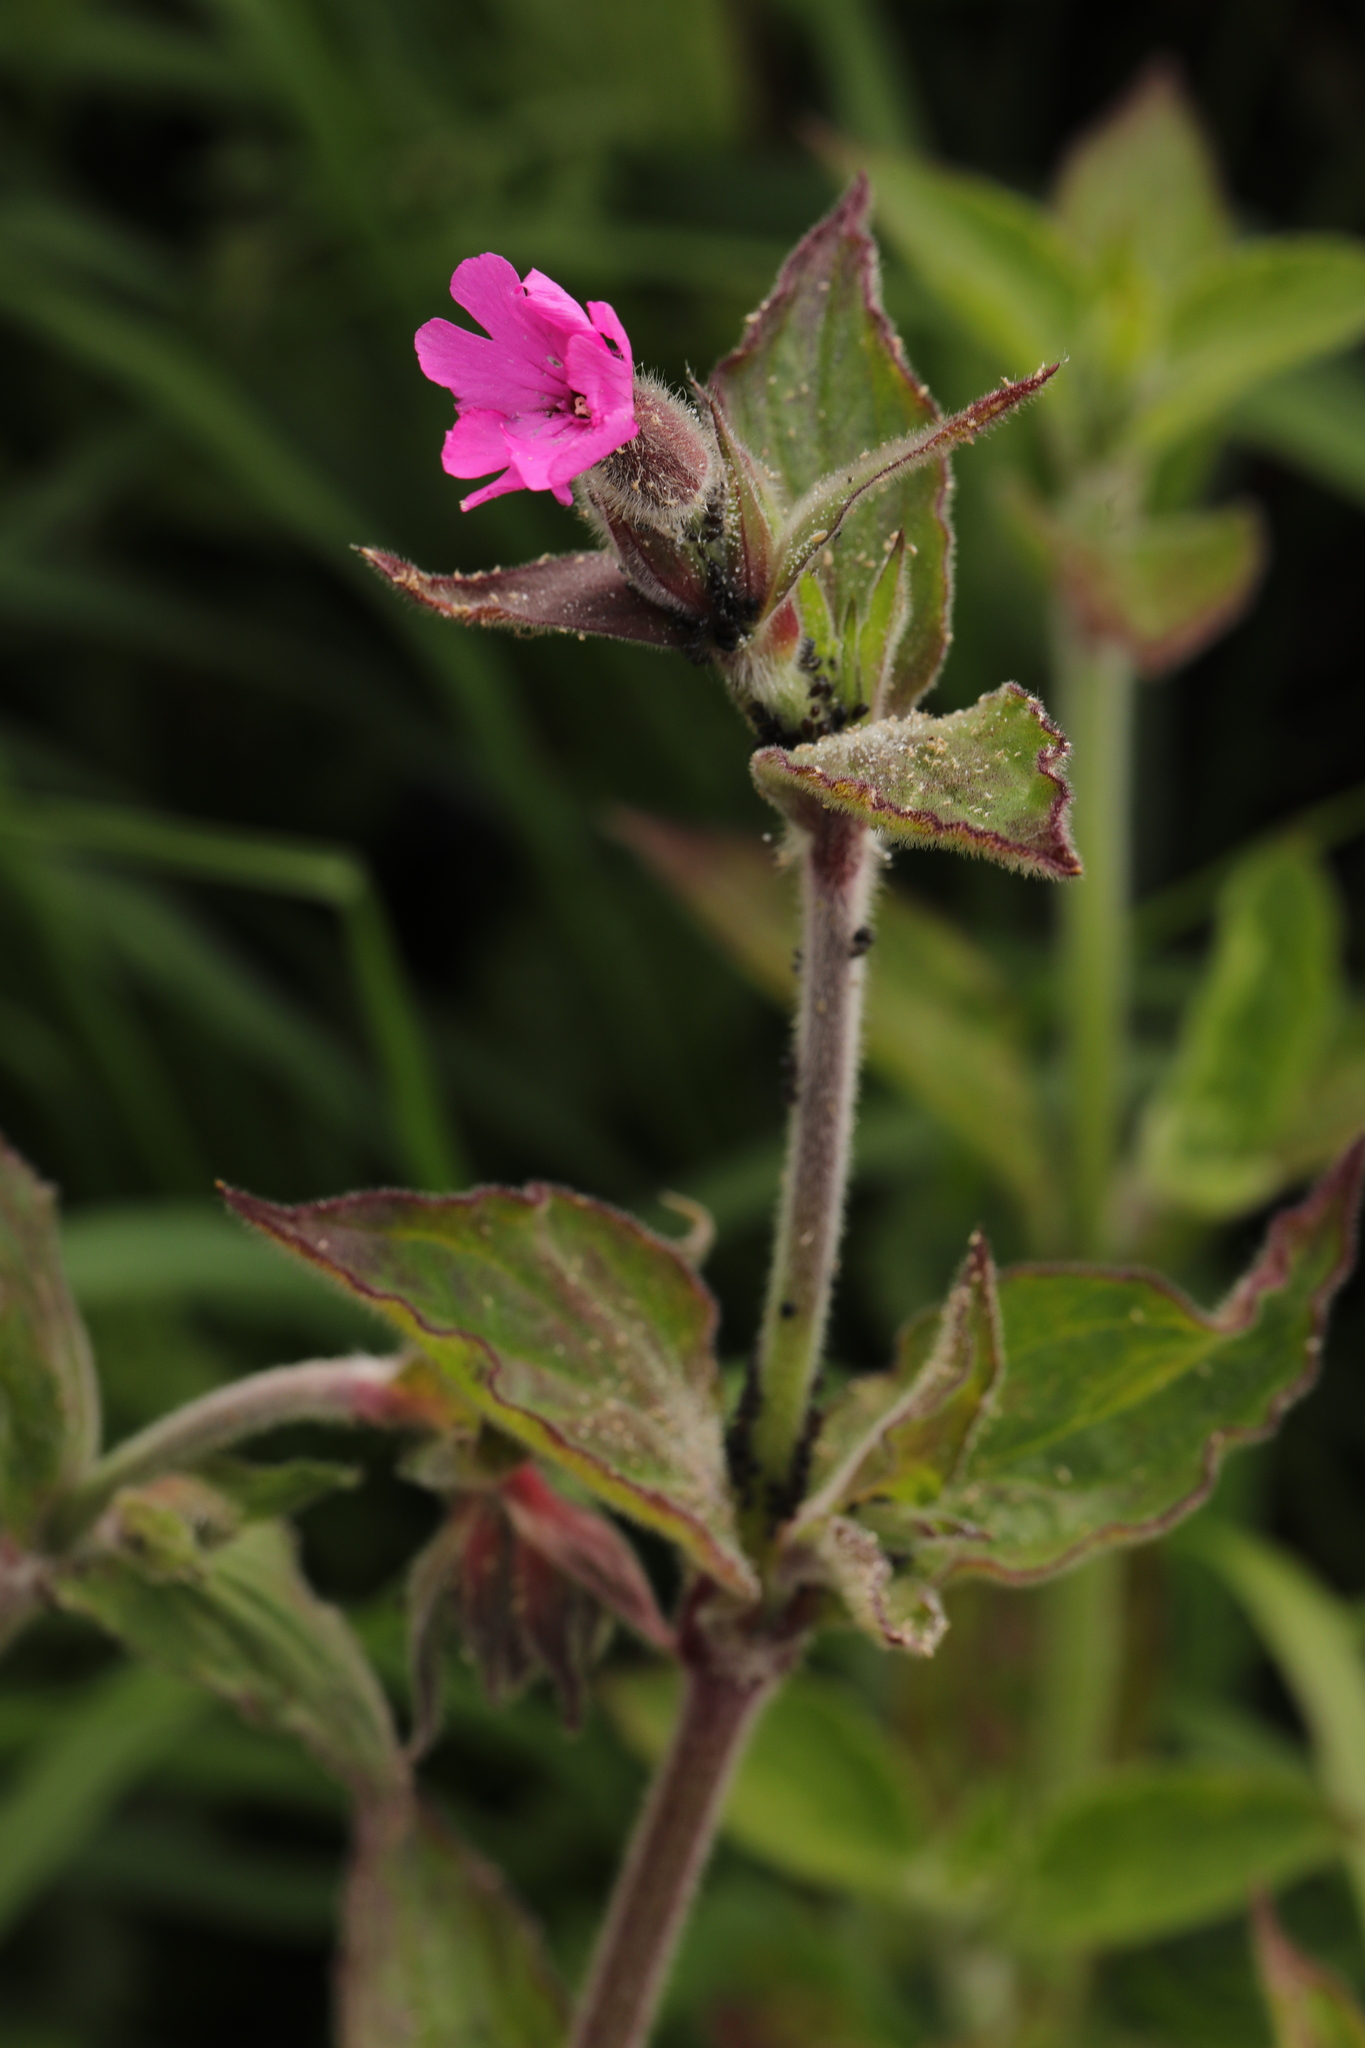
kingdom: Plantae
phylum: Tracheophyta
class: Magnoliopsida
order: Caryophyllales
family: Caryophyllaceae
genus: Silene
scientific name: Silene dioica
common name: Red campion
